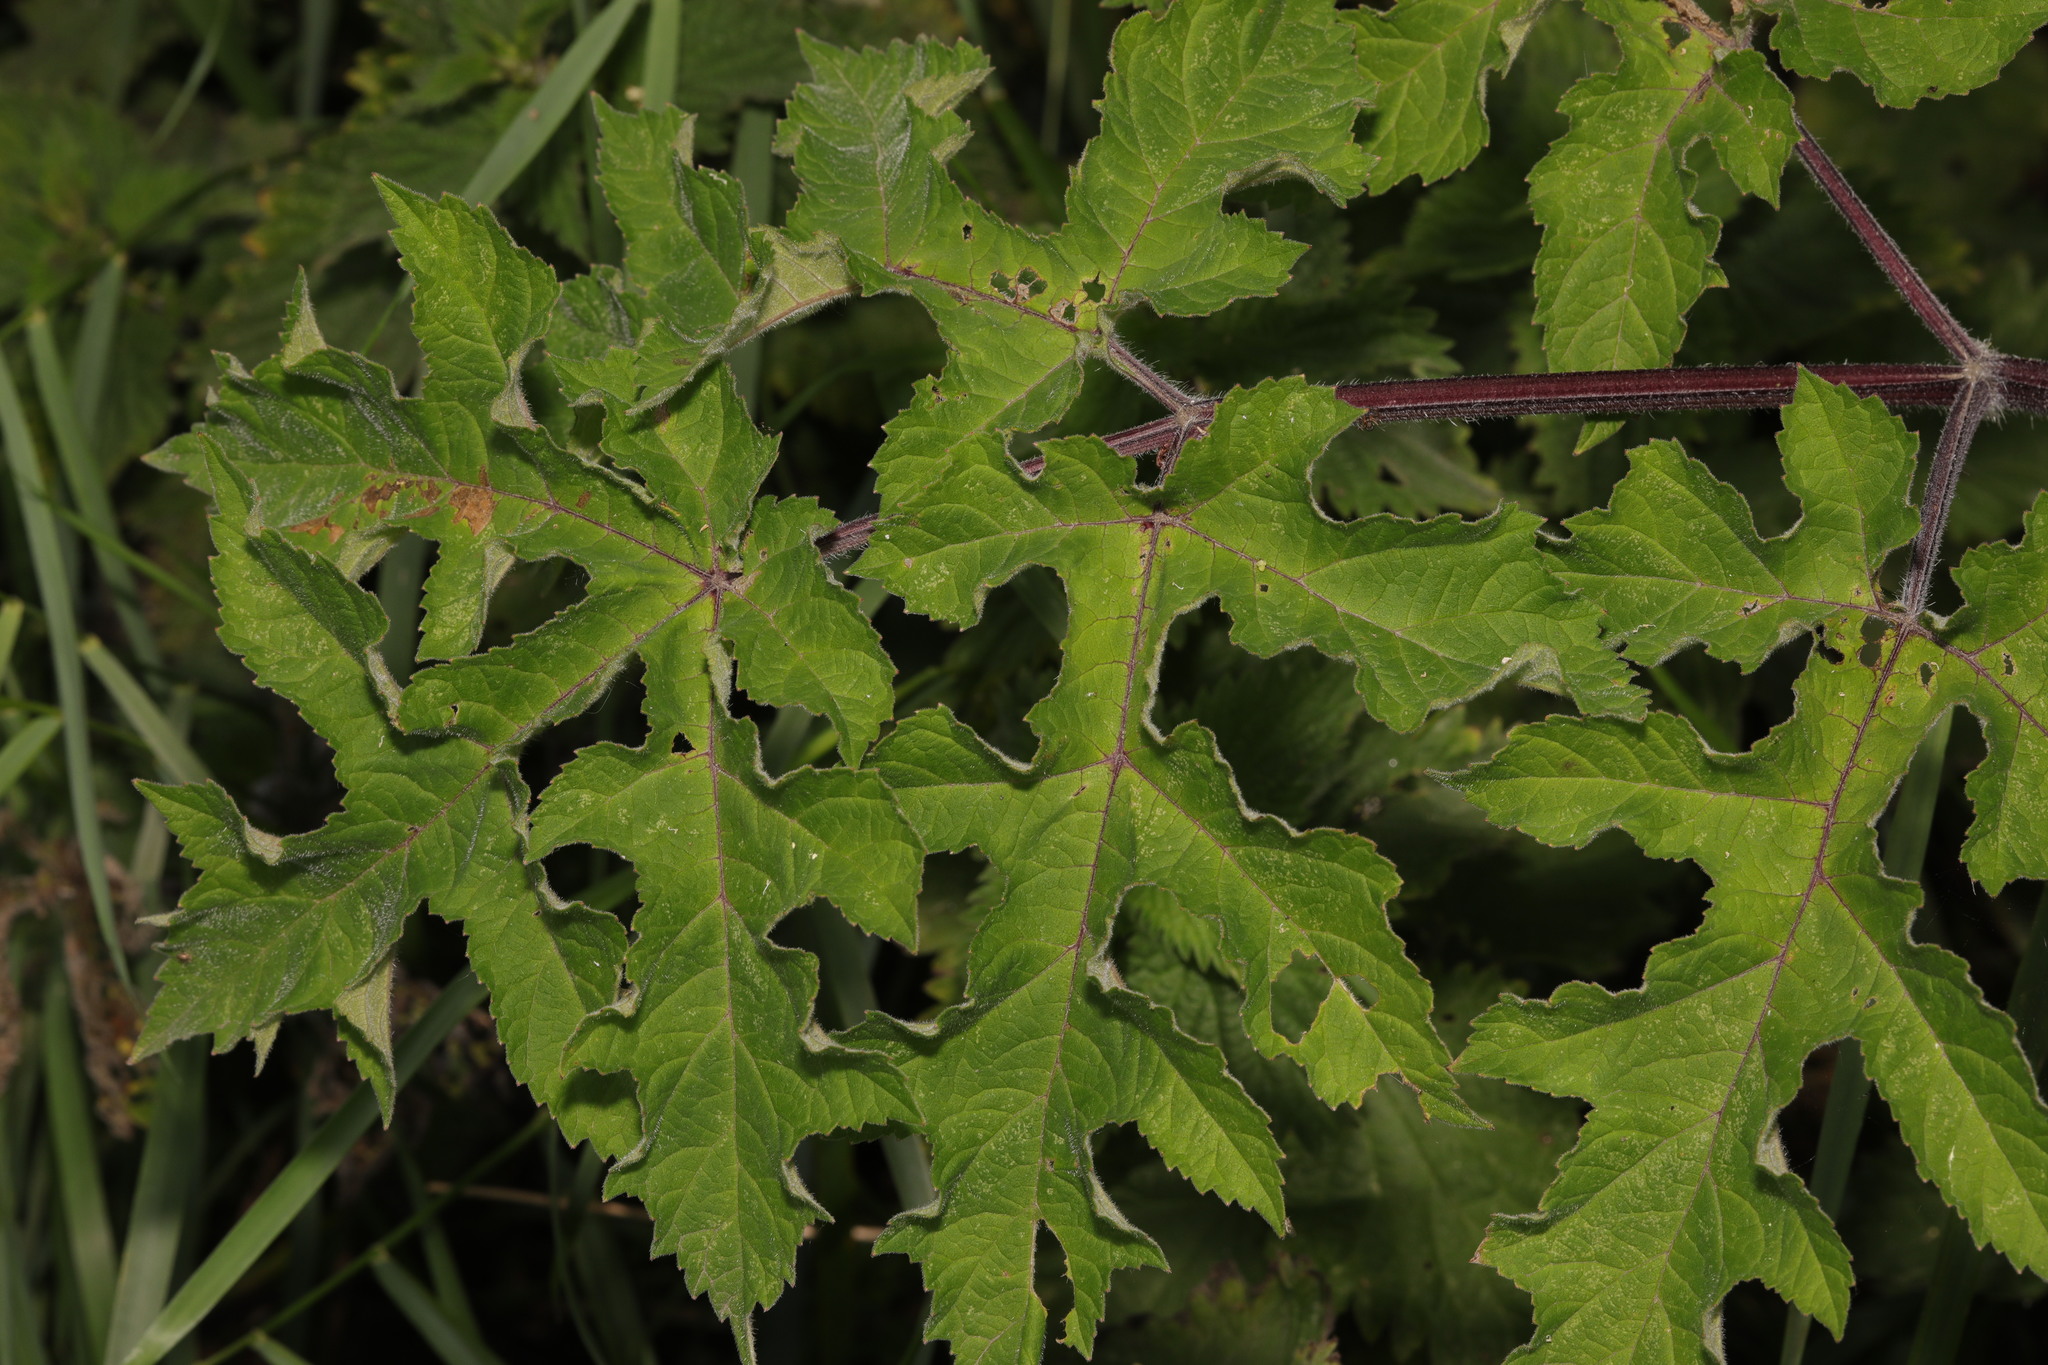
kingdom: Plantae
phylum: Tracheophyta
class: Magnoliopsida
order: Apiales
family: Apiaceae
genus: Heracleum
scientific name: Heracleum sphondylium
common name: Hogweed
